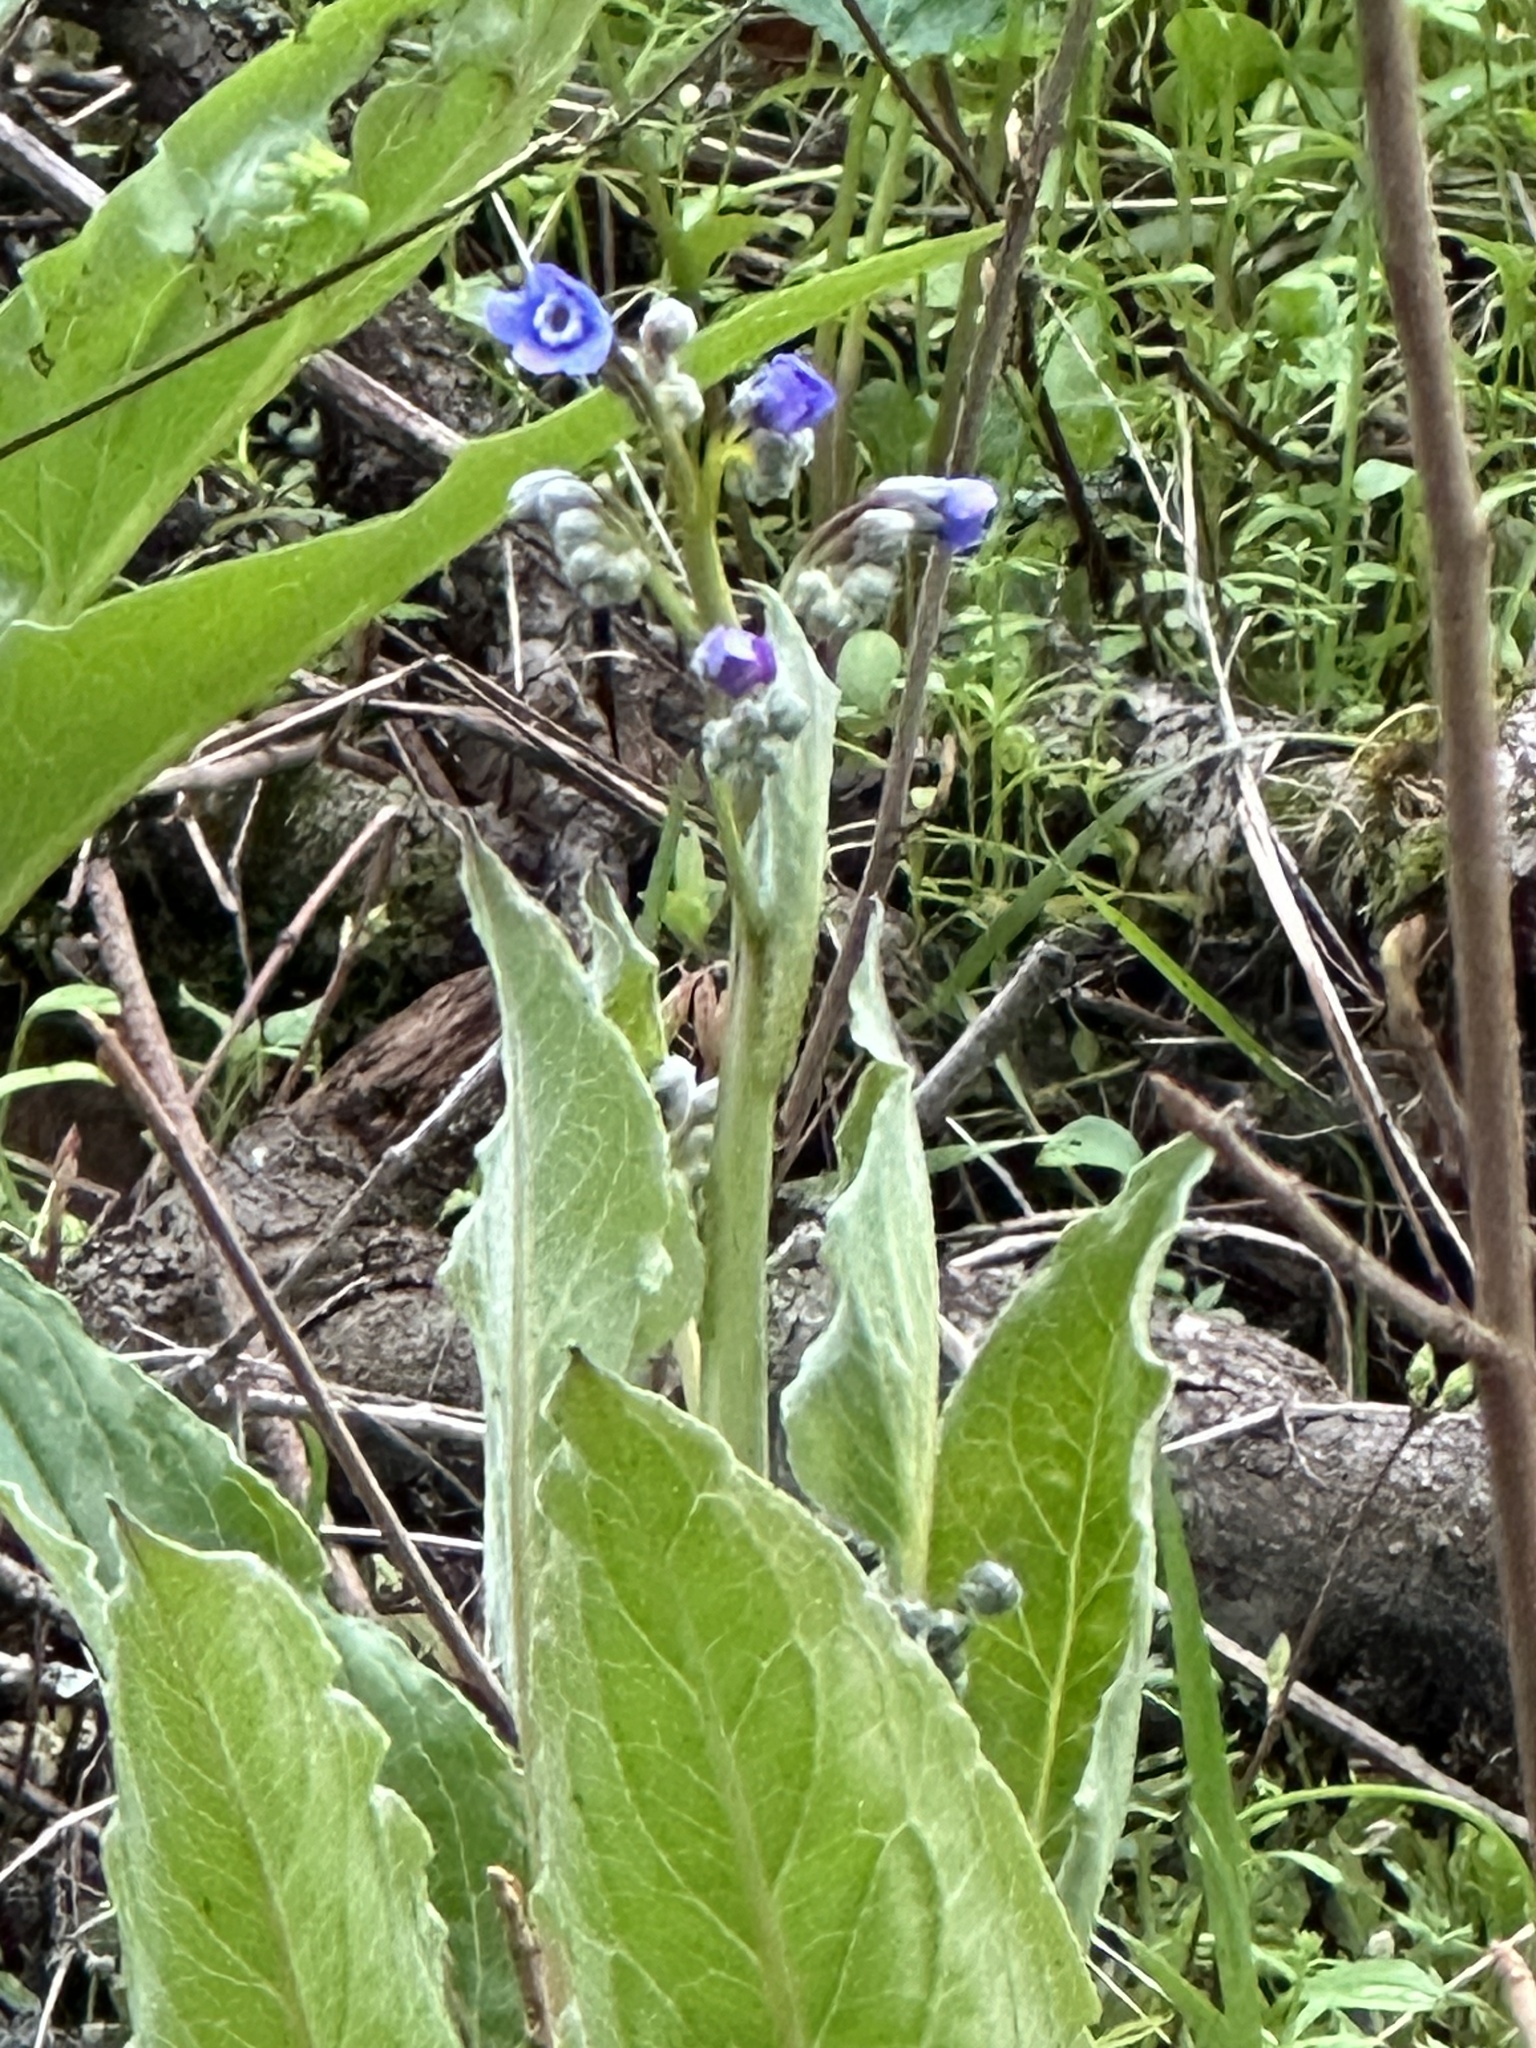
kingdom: Plantae
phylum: Tracheophyta
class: Magnoliopsida
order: Boraginales
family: Boraginaceae
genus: Adelinia
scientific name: Adelinia grande
